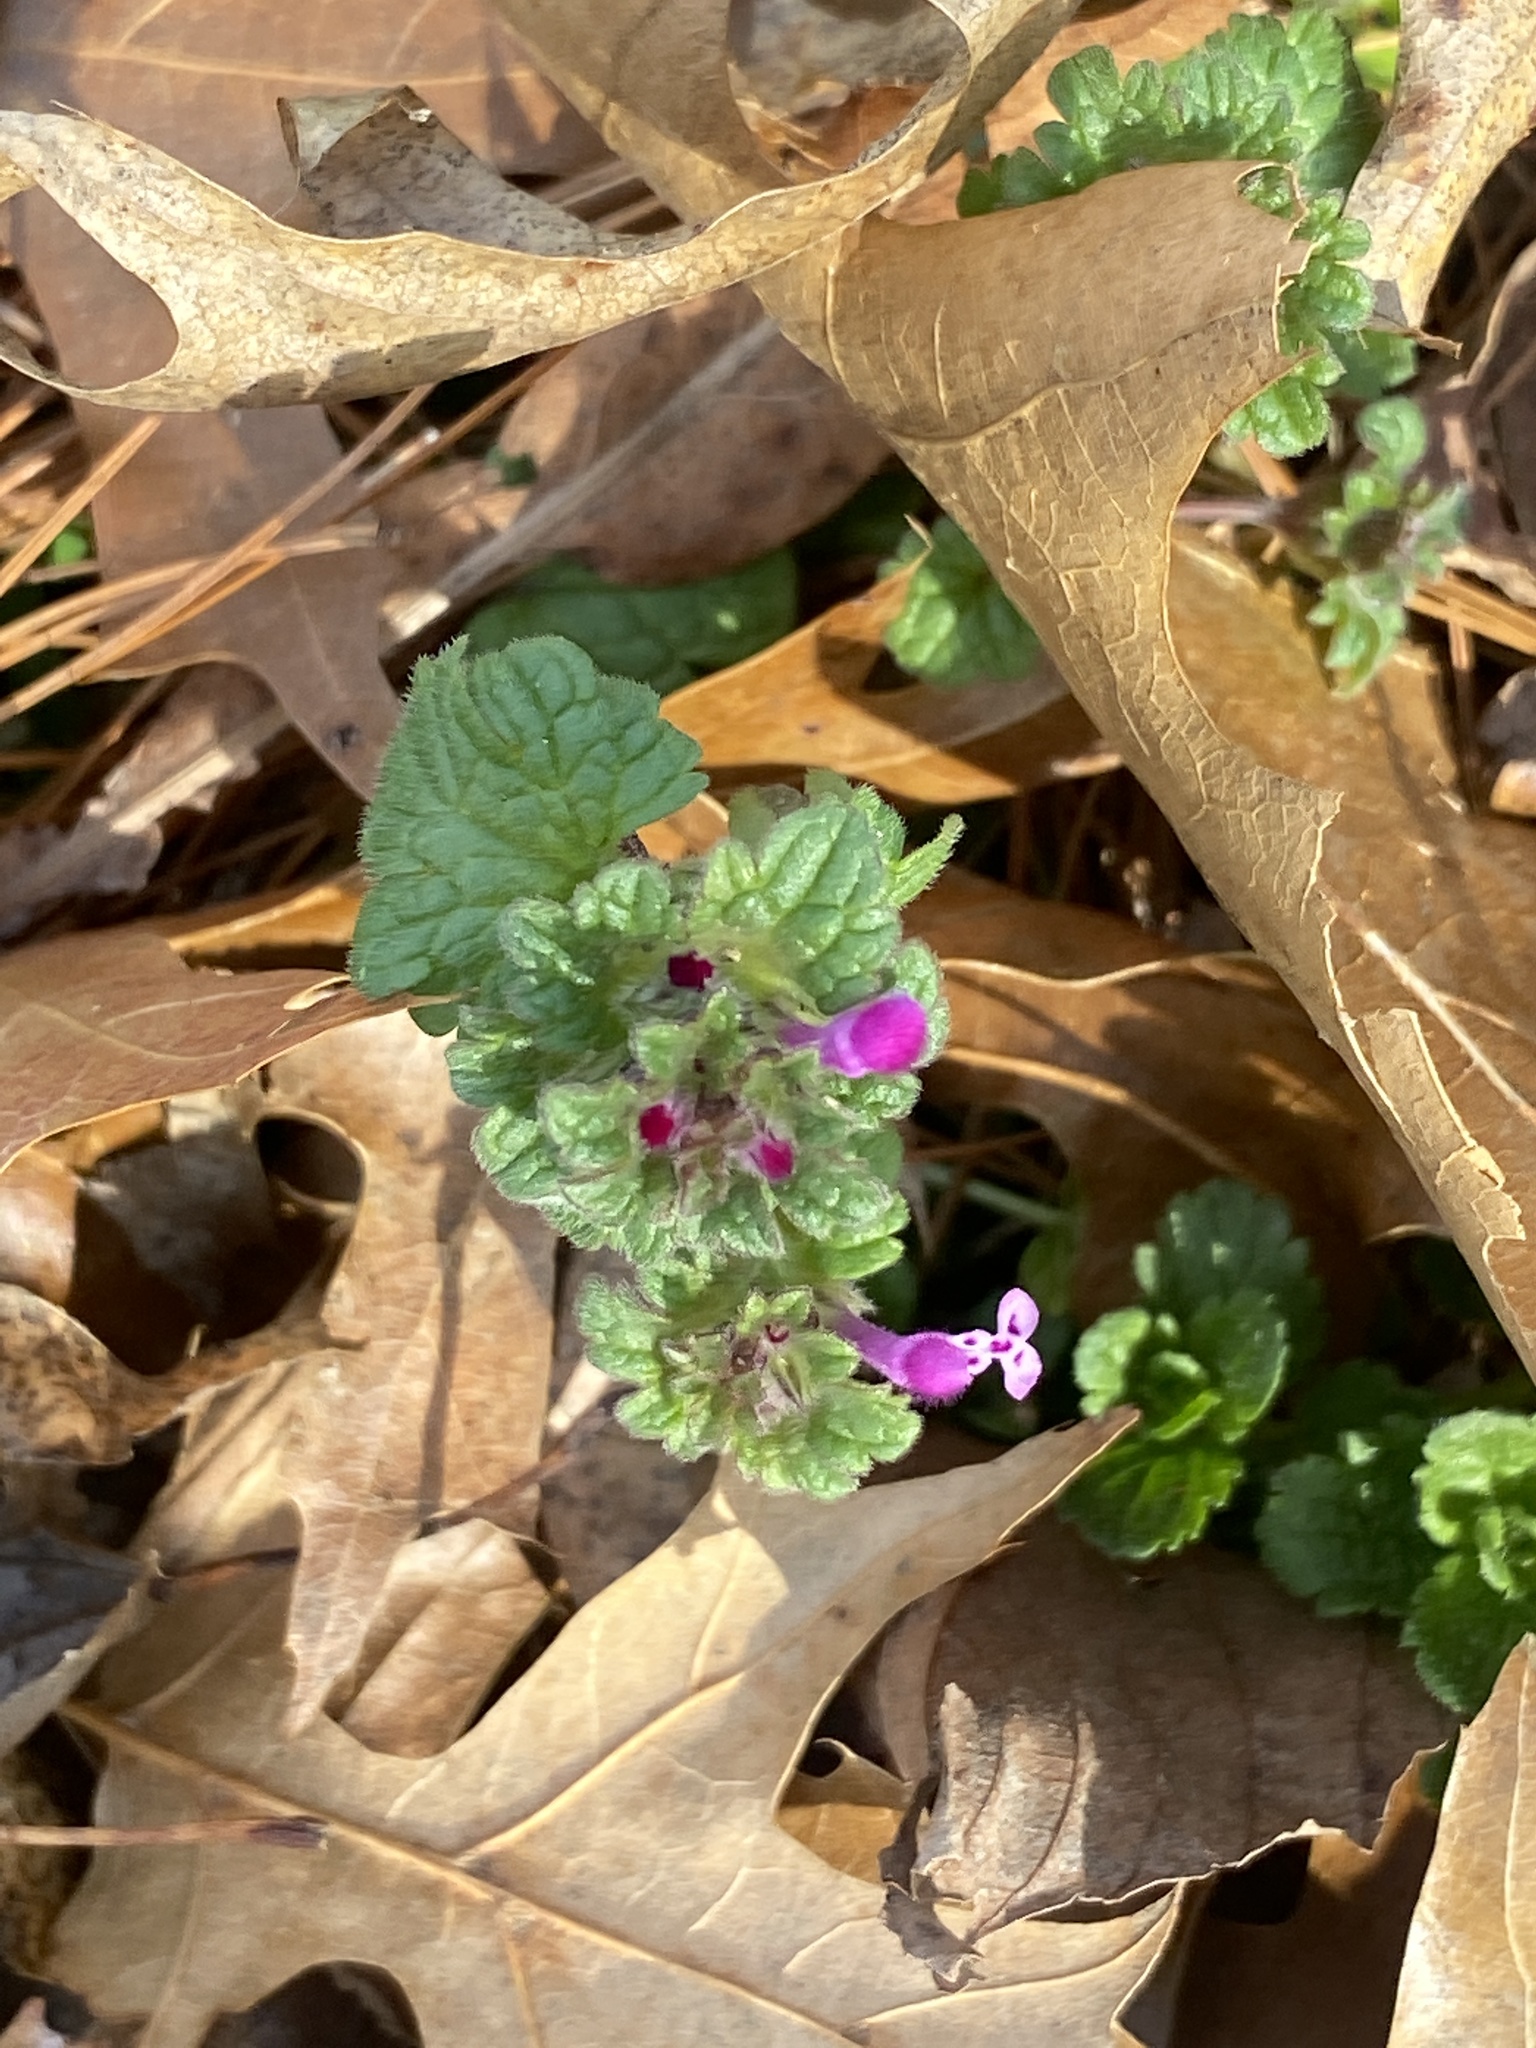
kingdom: Plantae
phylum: Tracheophyta
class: Magnoliopsida
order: Lamiales
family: Lamiaceae
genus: Lamium
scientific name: Lamium amplexicaule
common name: Henbit dead-nettle
